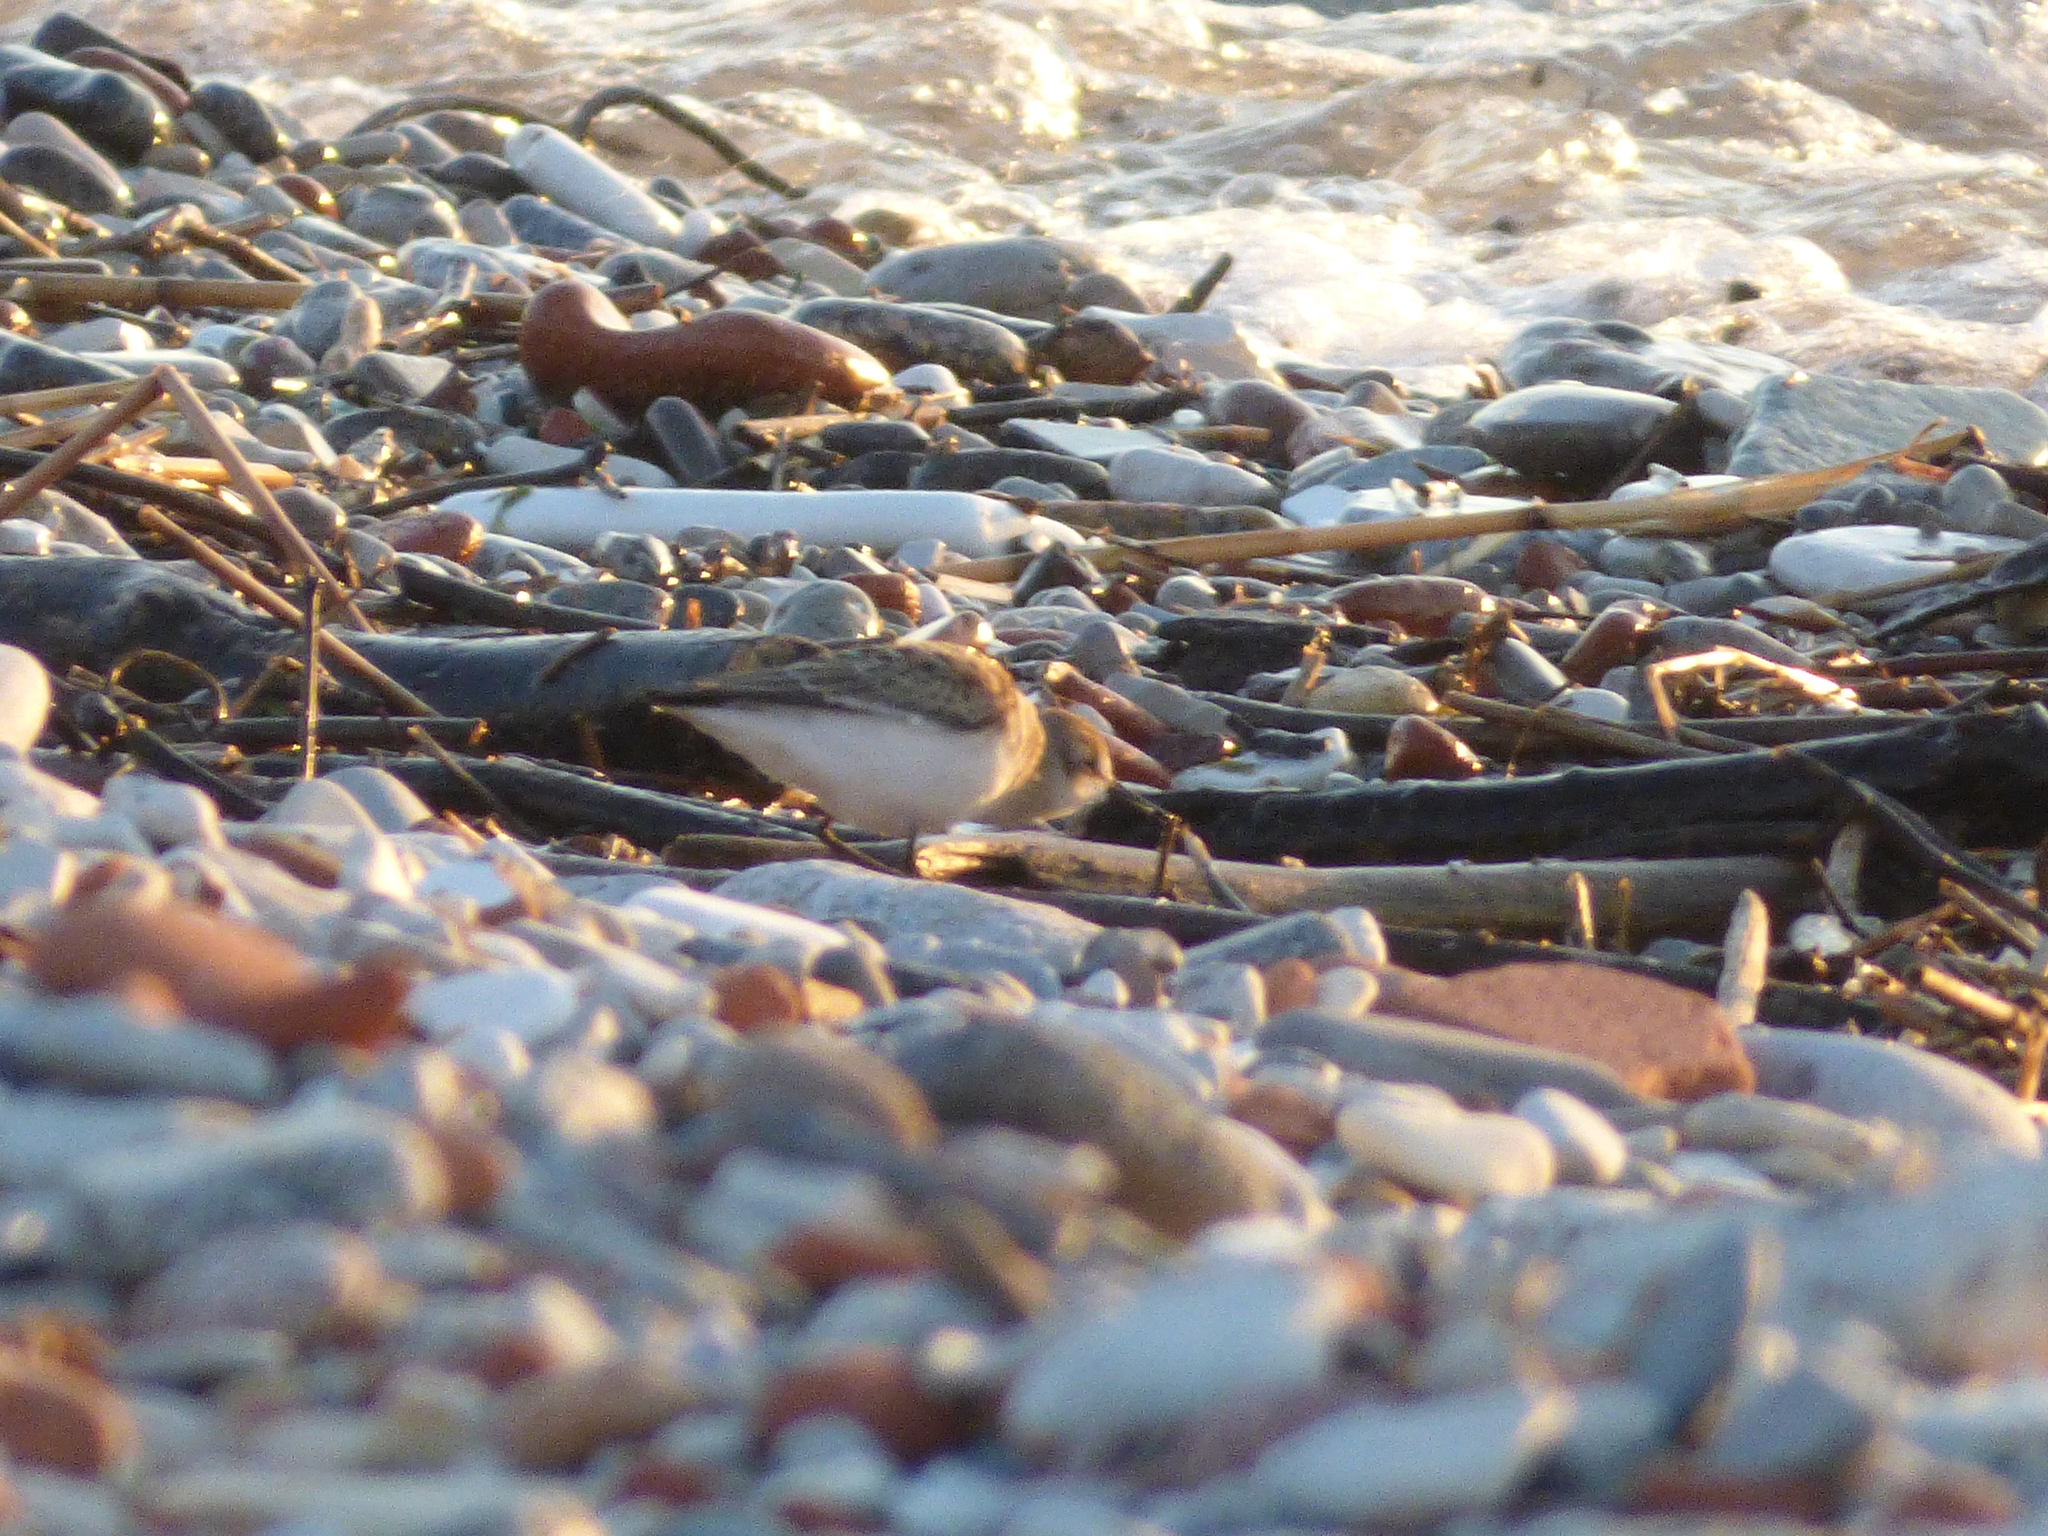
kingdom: Animalia
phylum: Chordata
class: Aves
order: Charadriiformes
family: Scolopacidae
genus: Calidris
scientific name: Calidris pusilla
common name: Semipalmated sandpiper
